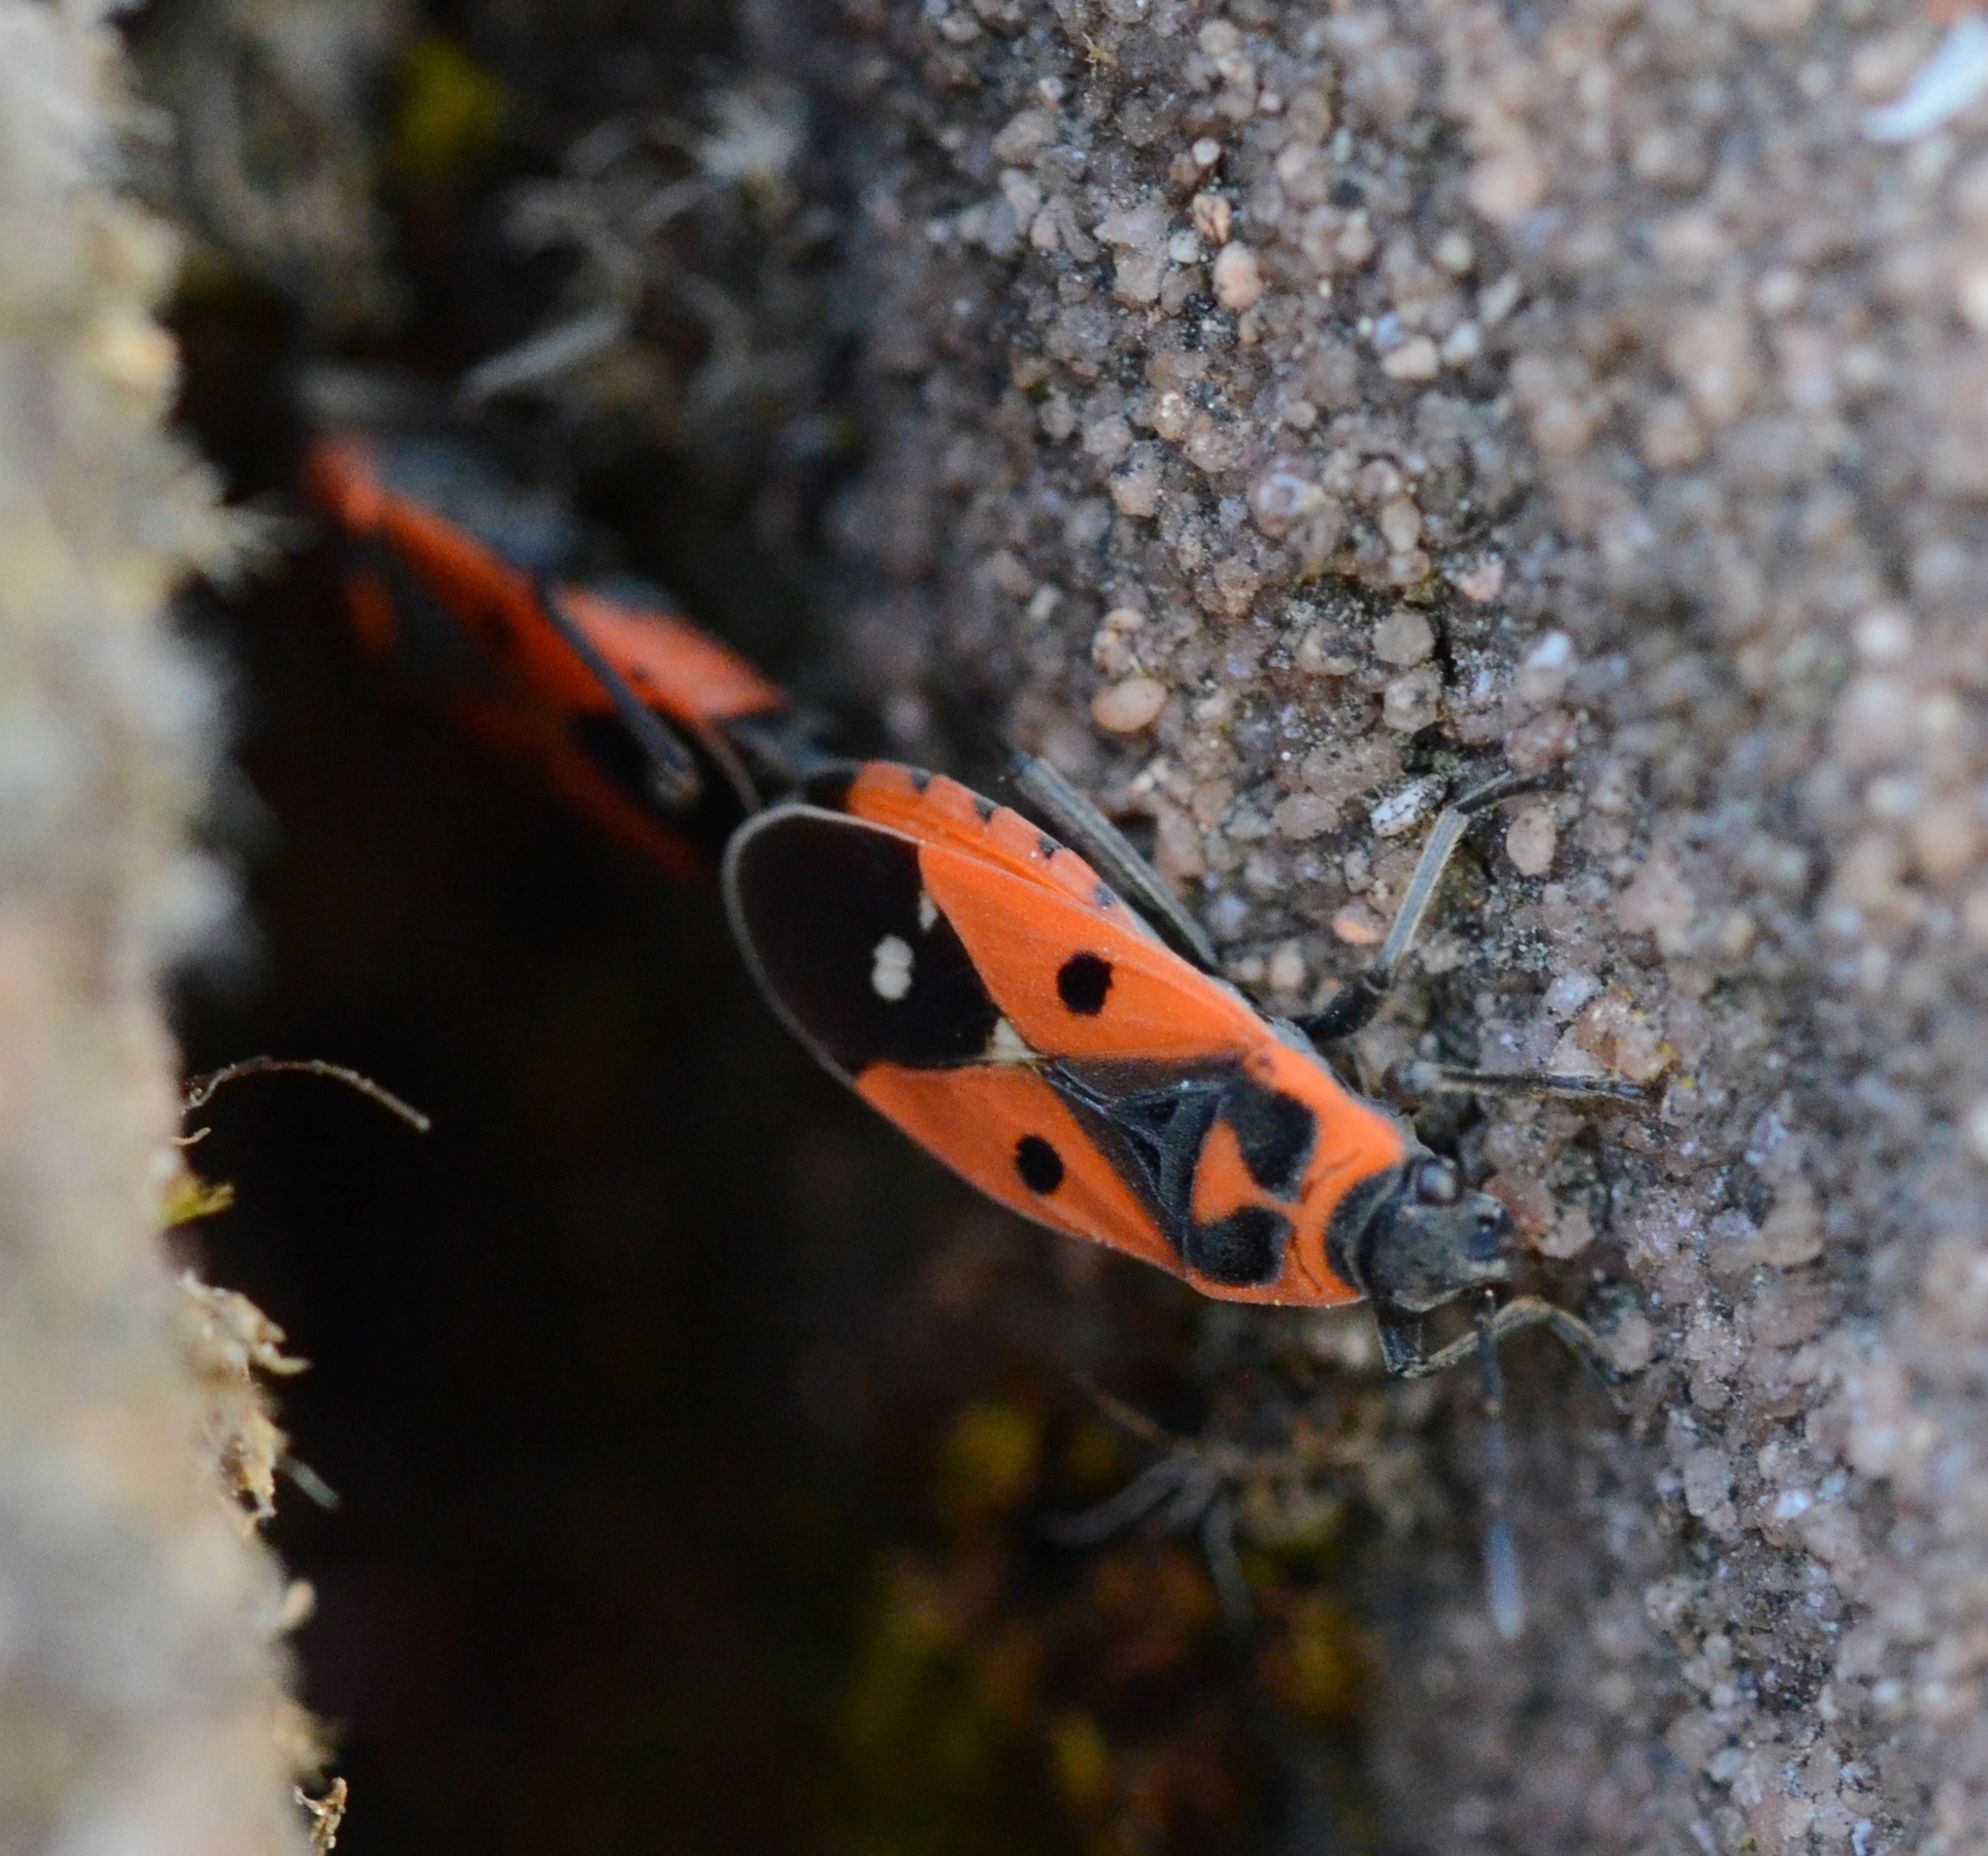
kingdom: Animalia
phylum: Arthropoda
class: Insecta
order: Hemiptera
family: Lygaeidae
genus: Melanocoryphus
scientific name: Melanocoryphus albomaculatus
